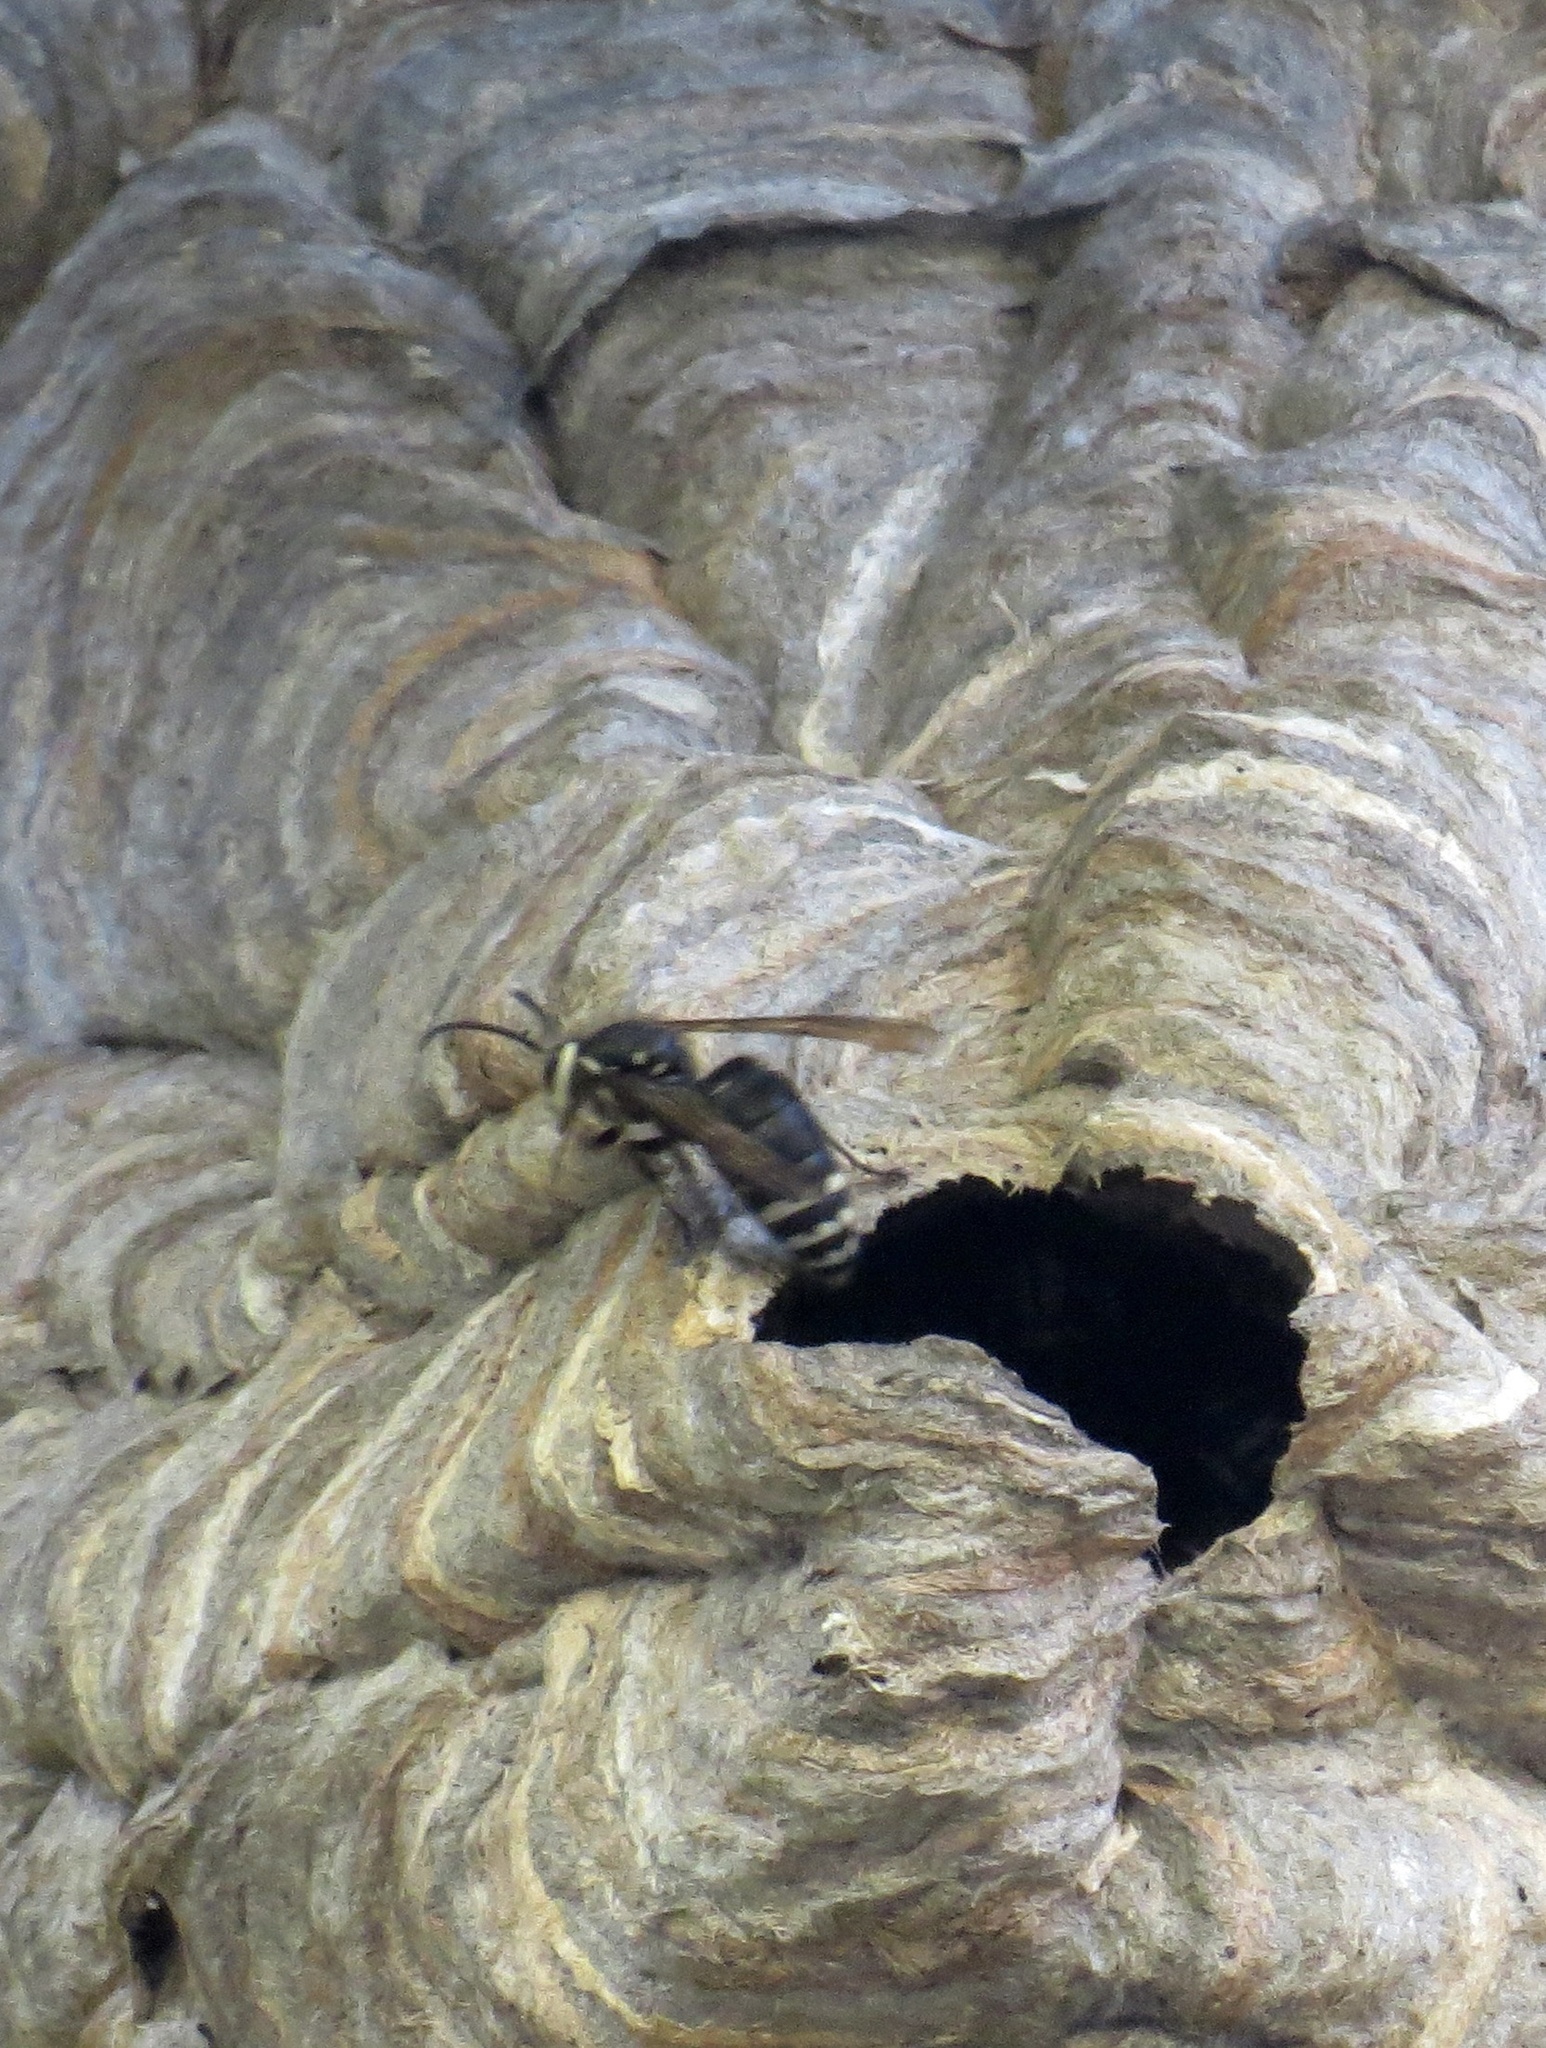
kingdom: Animalia
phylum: Arthropoda
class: Insecta
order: Hymenoptera
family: Vespidae
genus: Dolichovespula
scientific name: Dolichovespula maculata
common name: Bald-faced hornet
